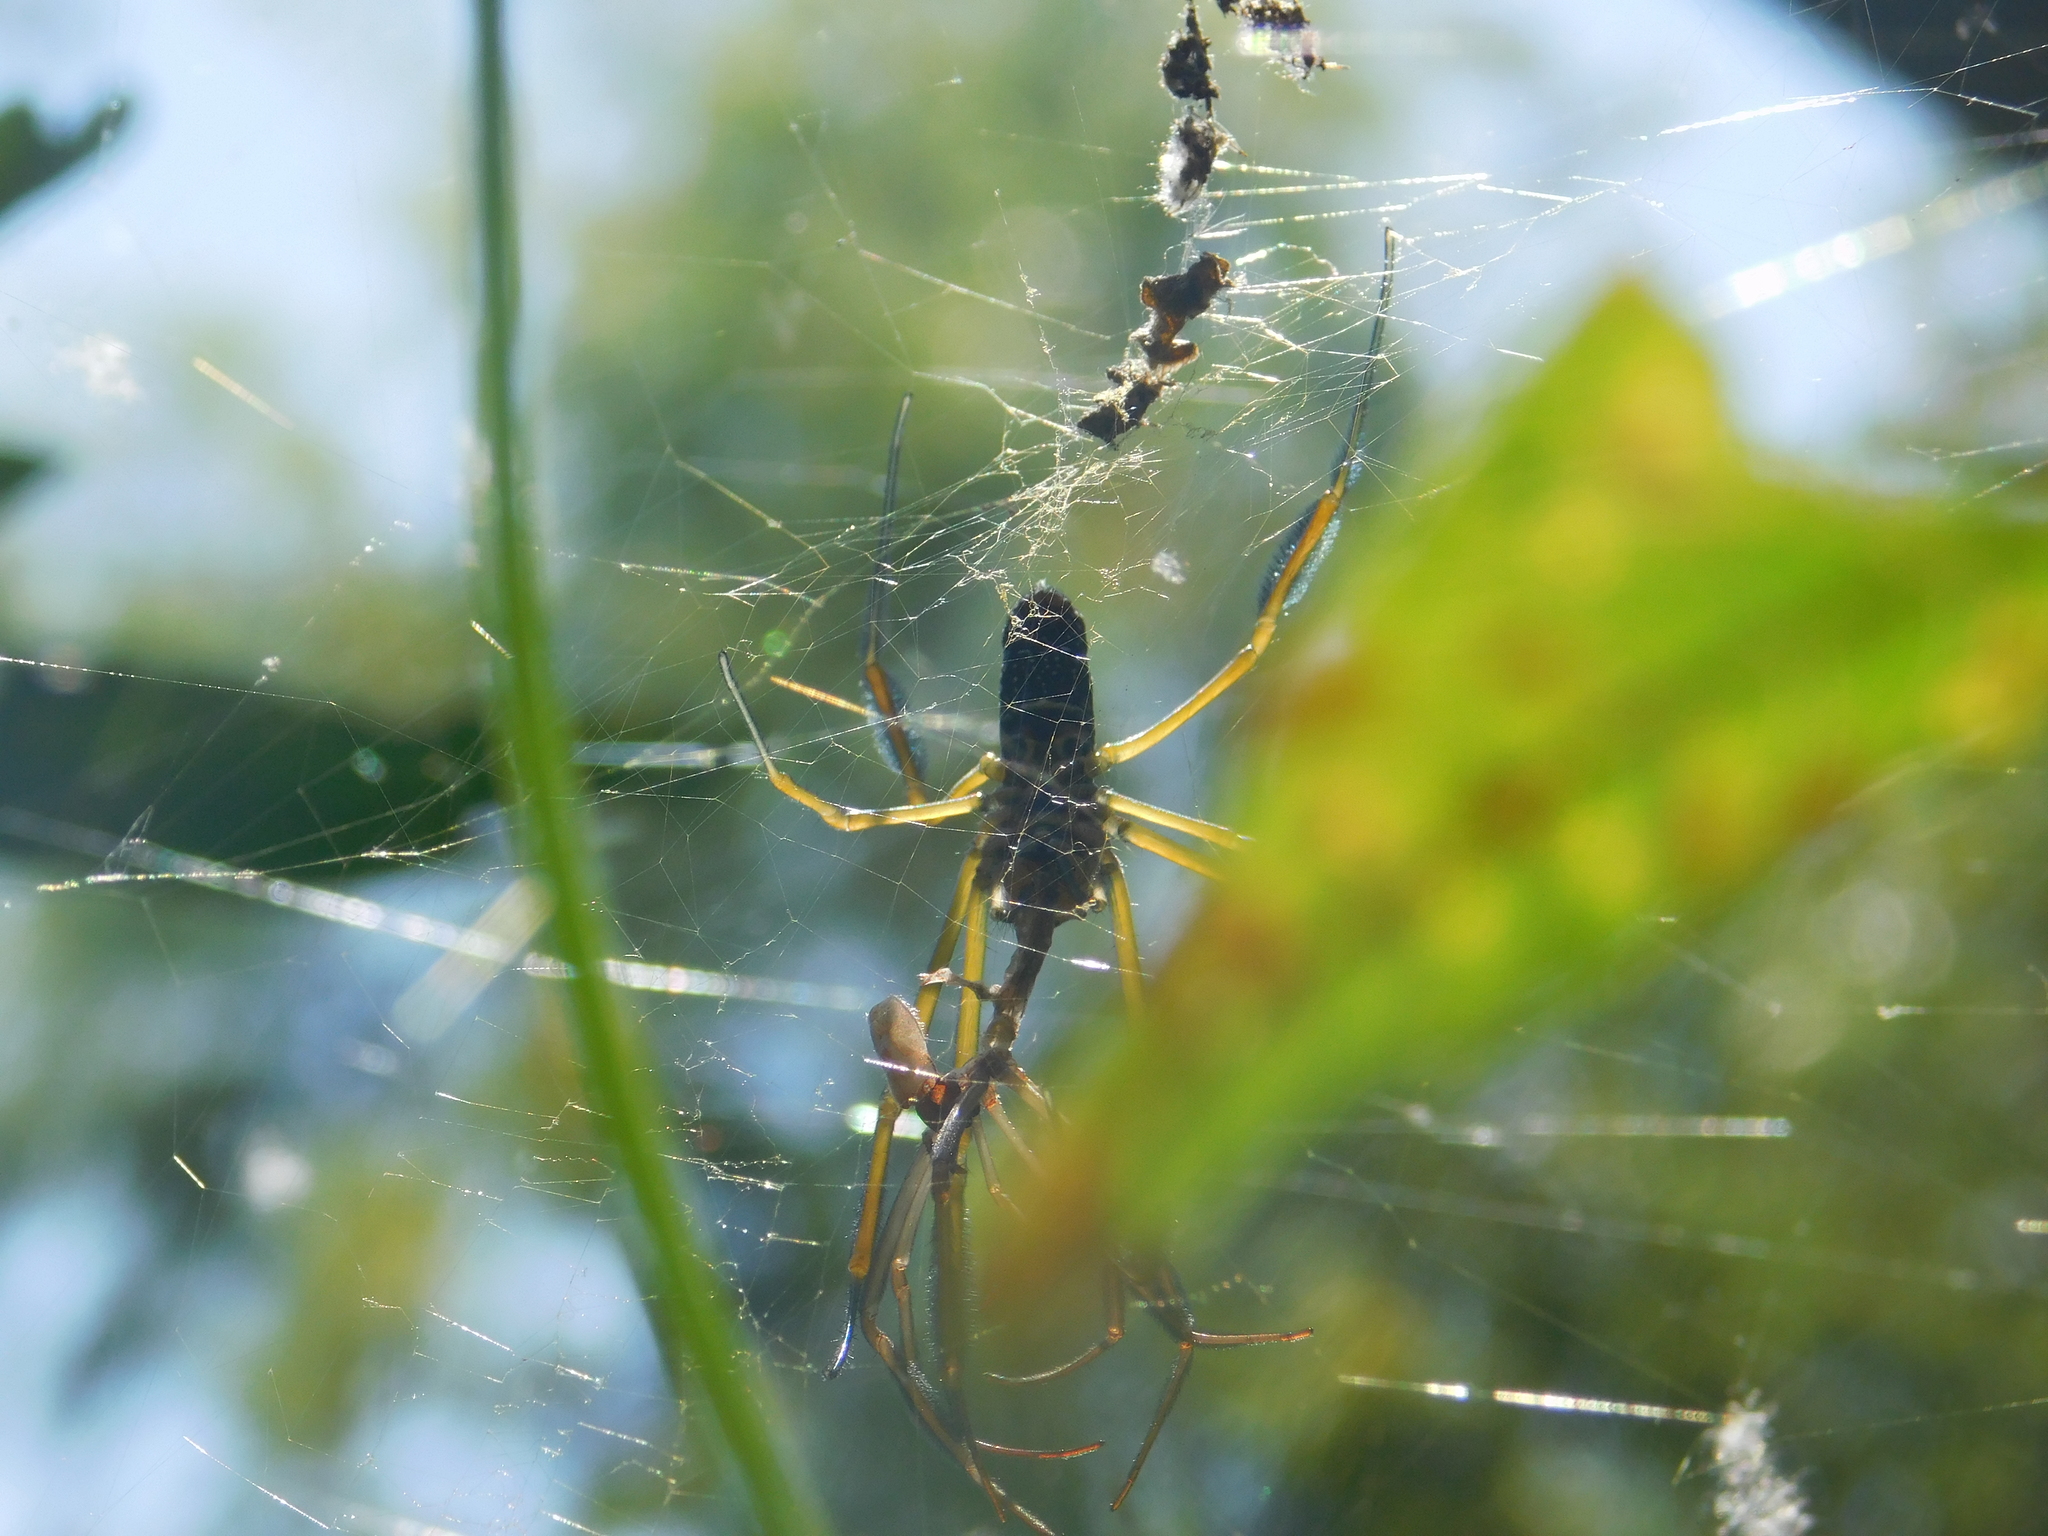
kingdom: Animalia
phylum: Arthropoda
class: Arachnida
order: Araneae
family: Araneidae
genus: Trichonephila
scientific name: Trichonephila clavipes
